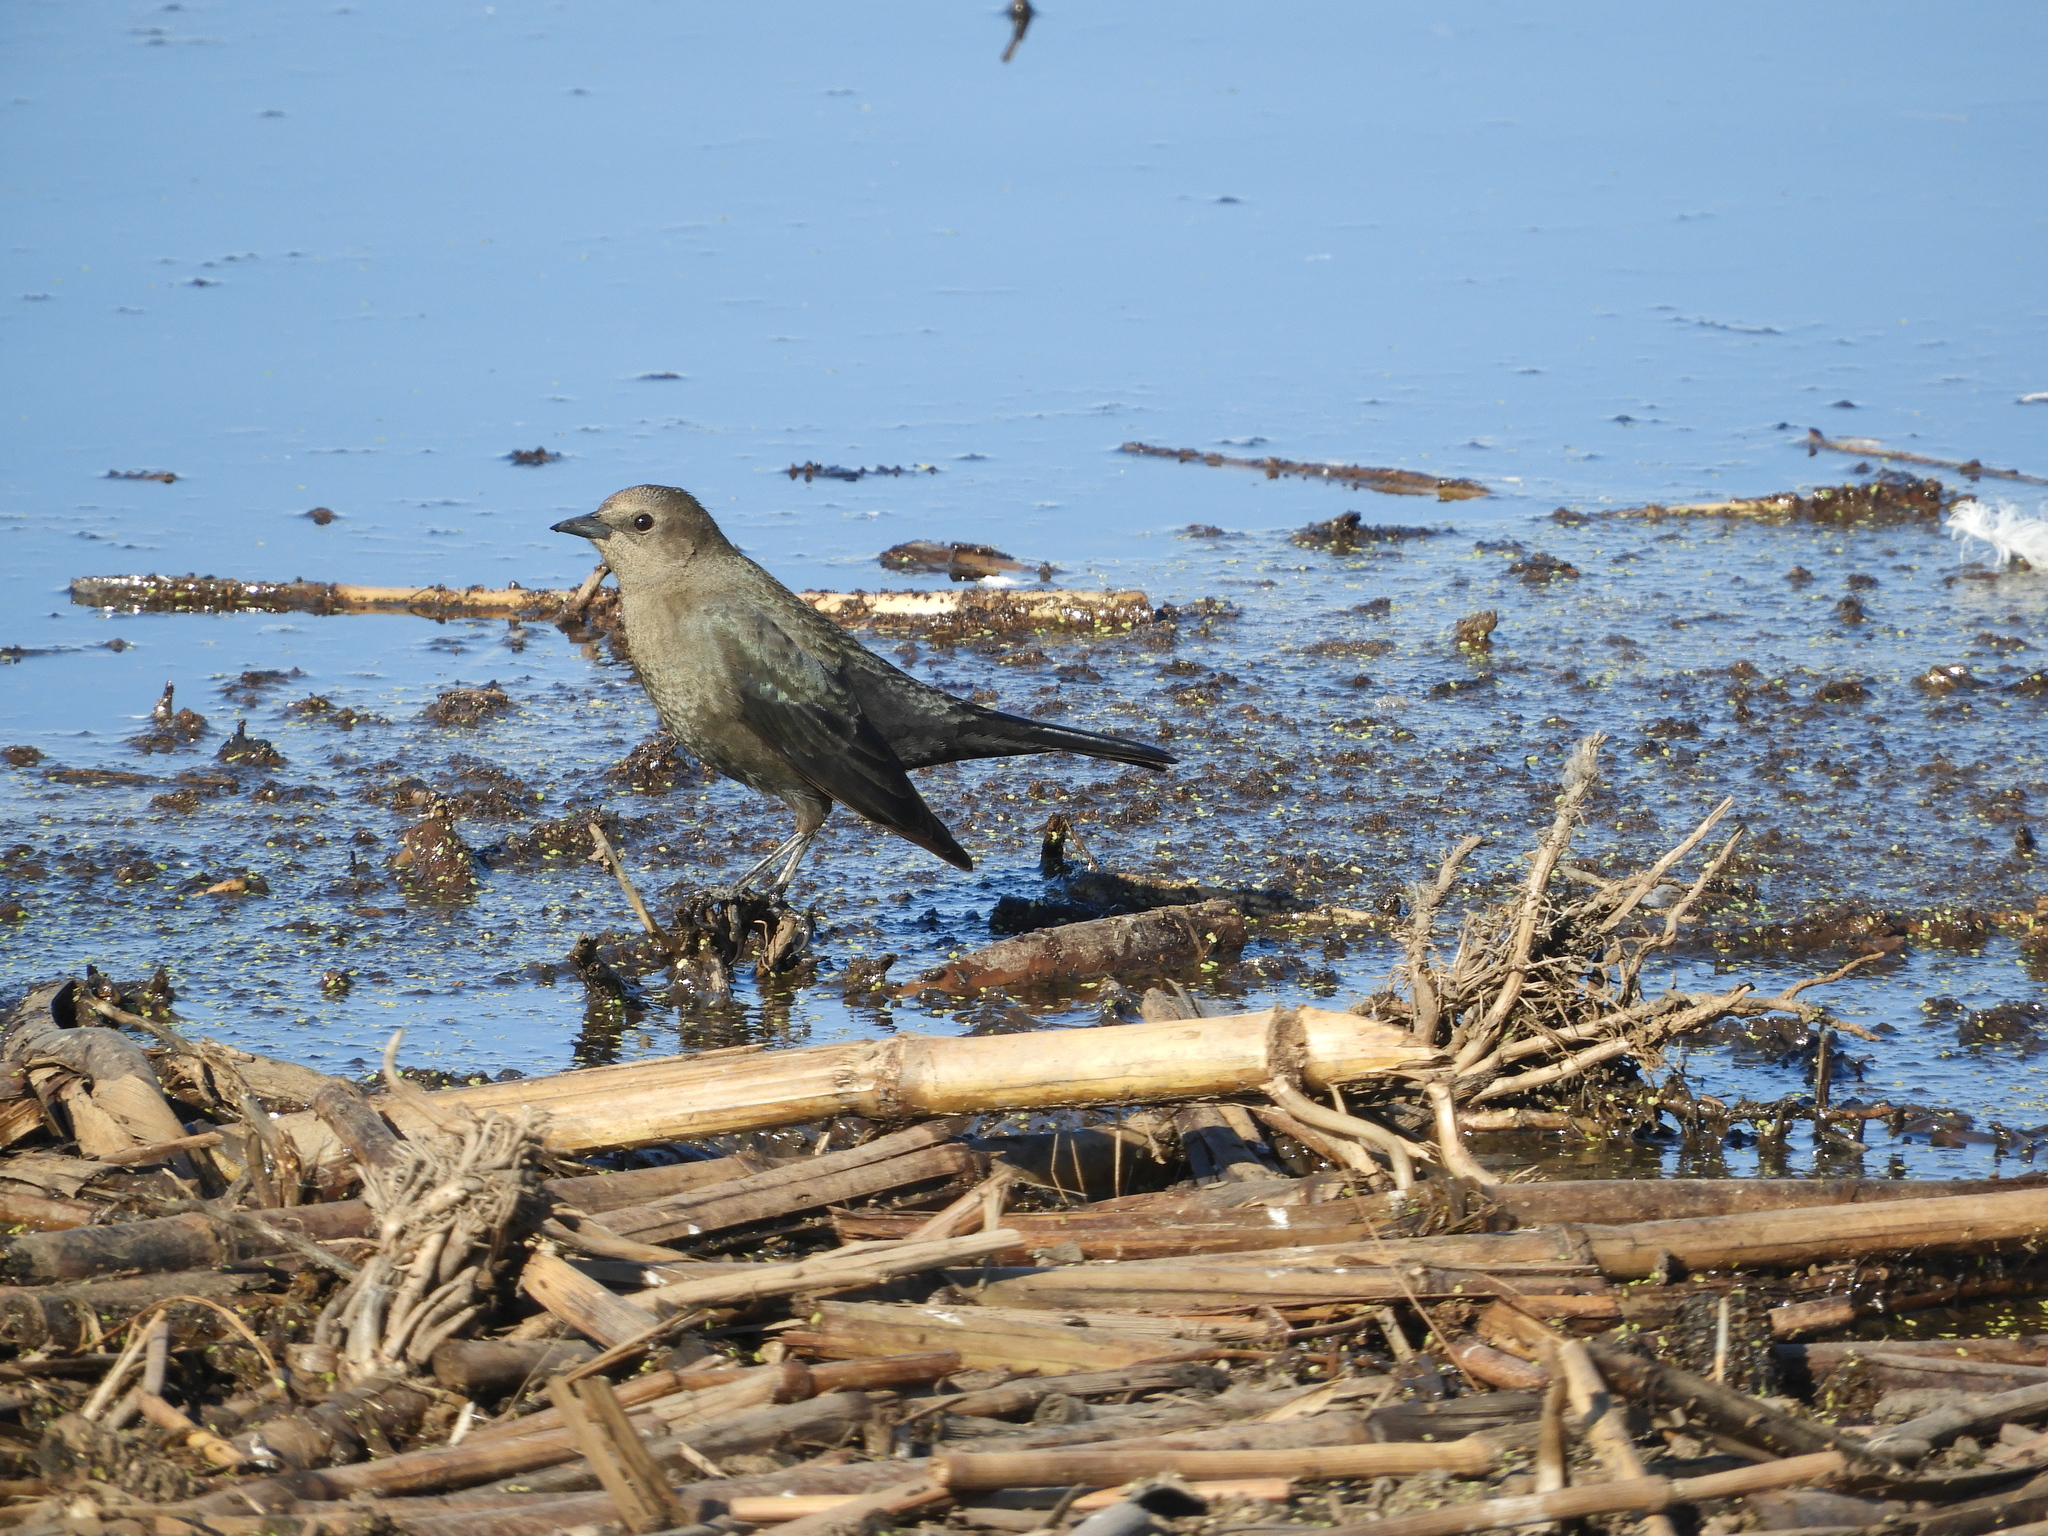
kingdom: Animalia
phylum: Chordata
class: Aves
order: Passeriformes
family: Icteridae
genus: Euphagus
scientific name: Euphagus cyanocephalus
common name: Brewer's blackbird
